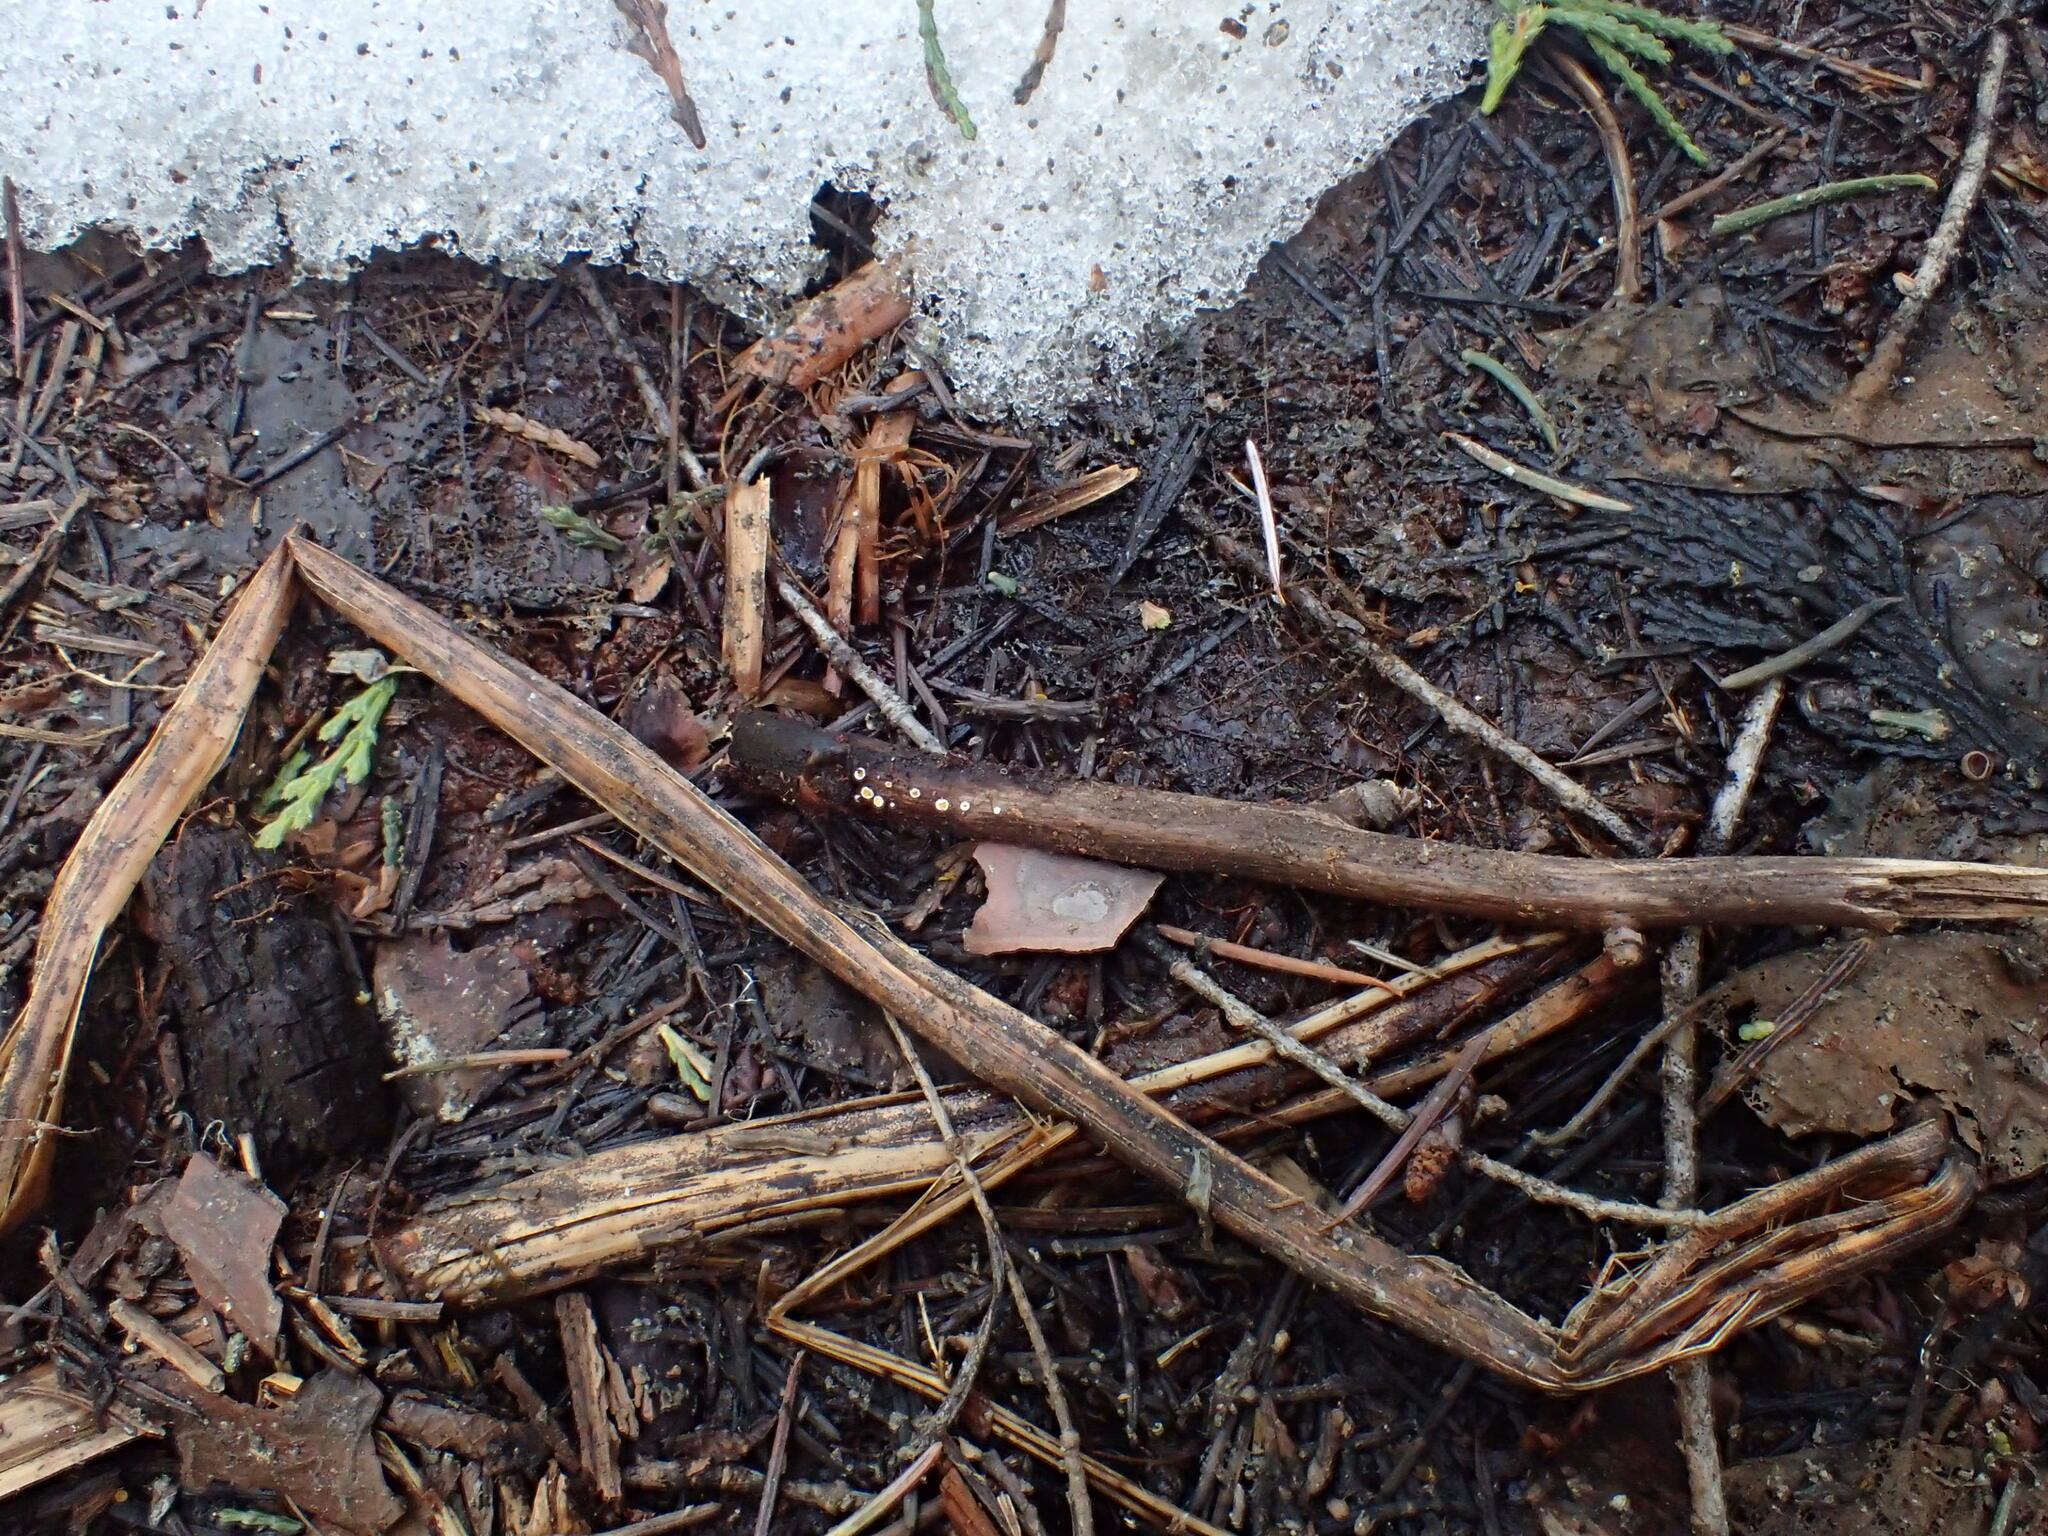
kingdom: Fungi
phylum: Ascomycota
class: Leotiomycetes
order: Helotiales
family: Lachnaceae
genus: Capitotricha
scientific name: Capitotricha bicolor
